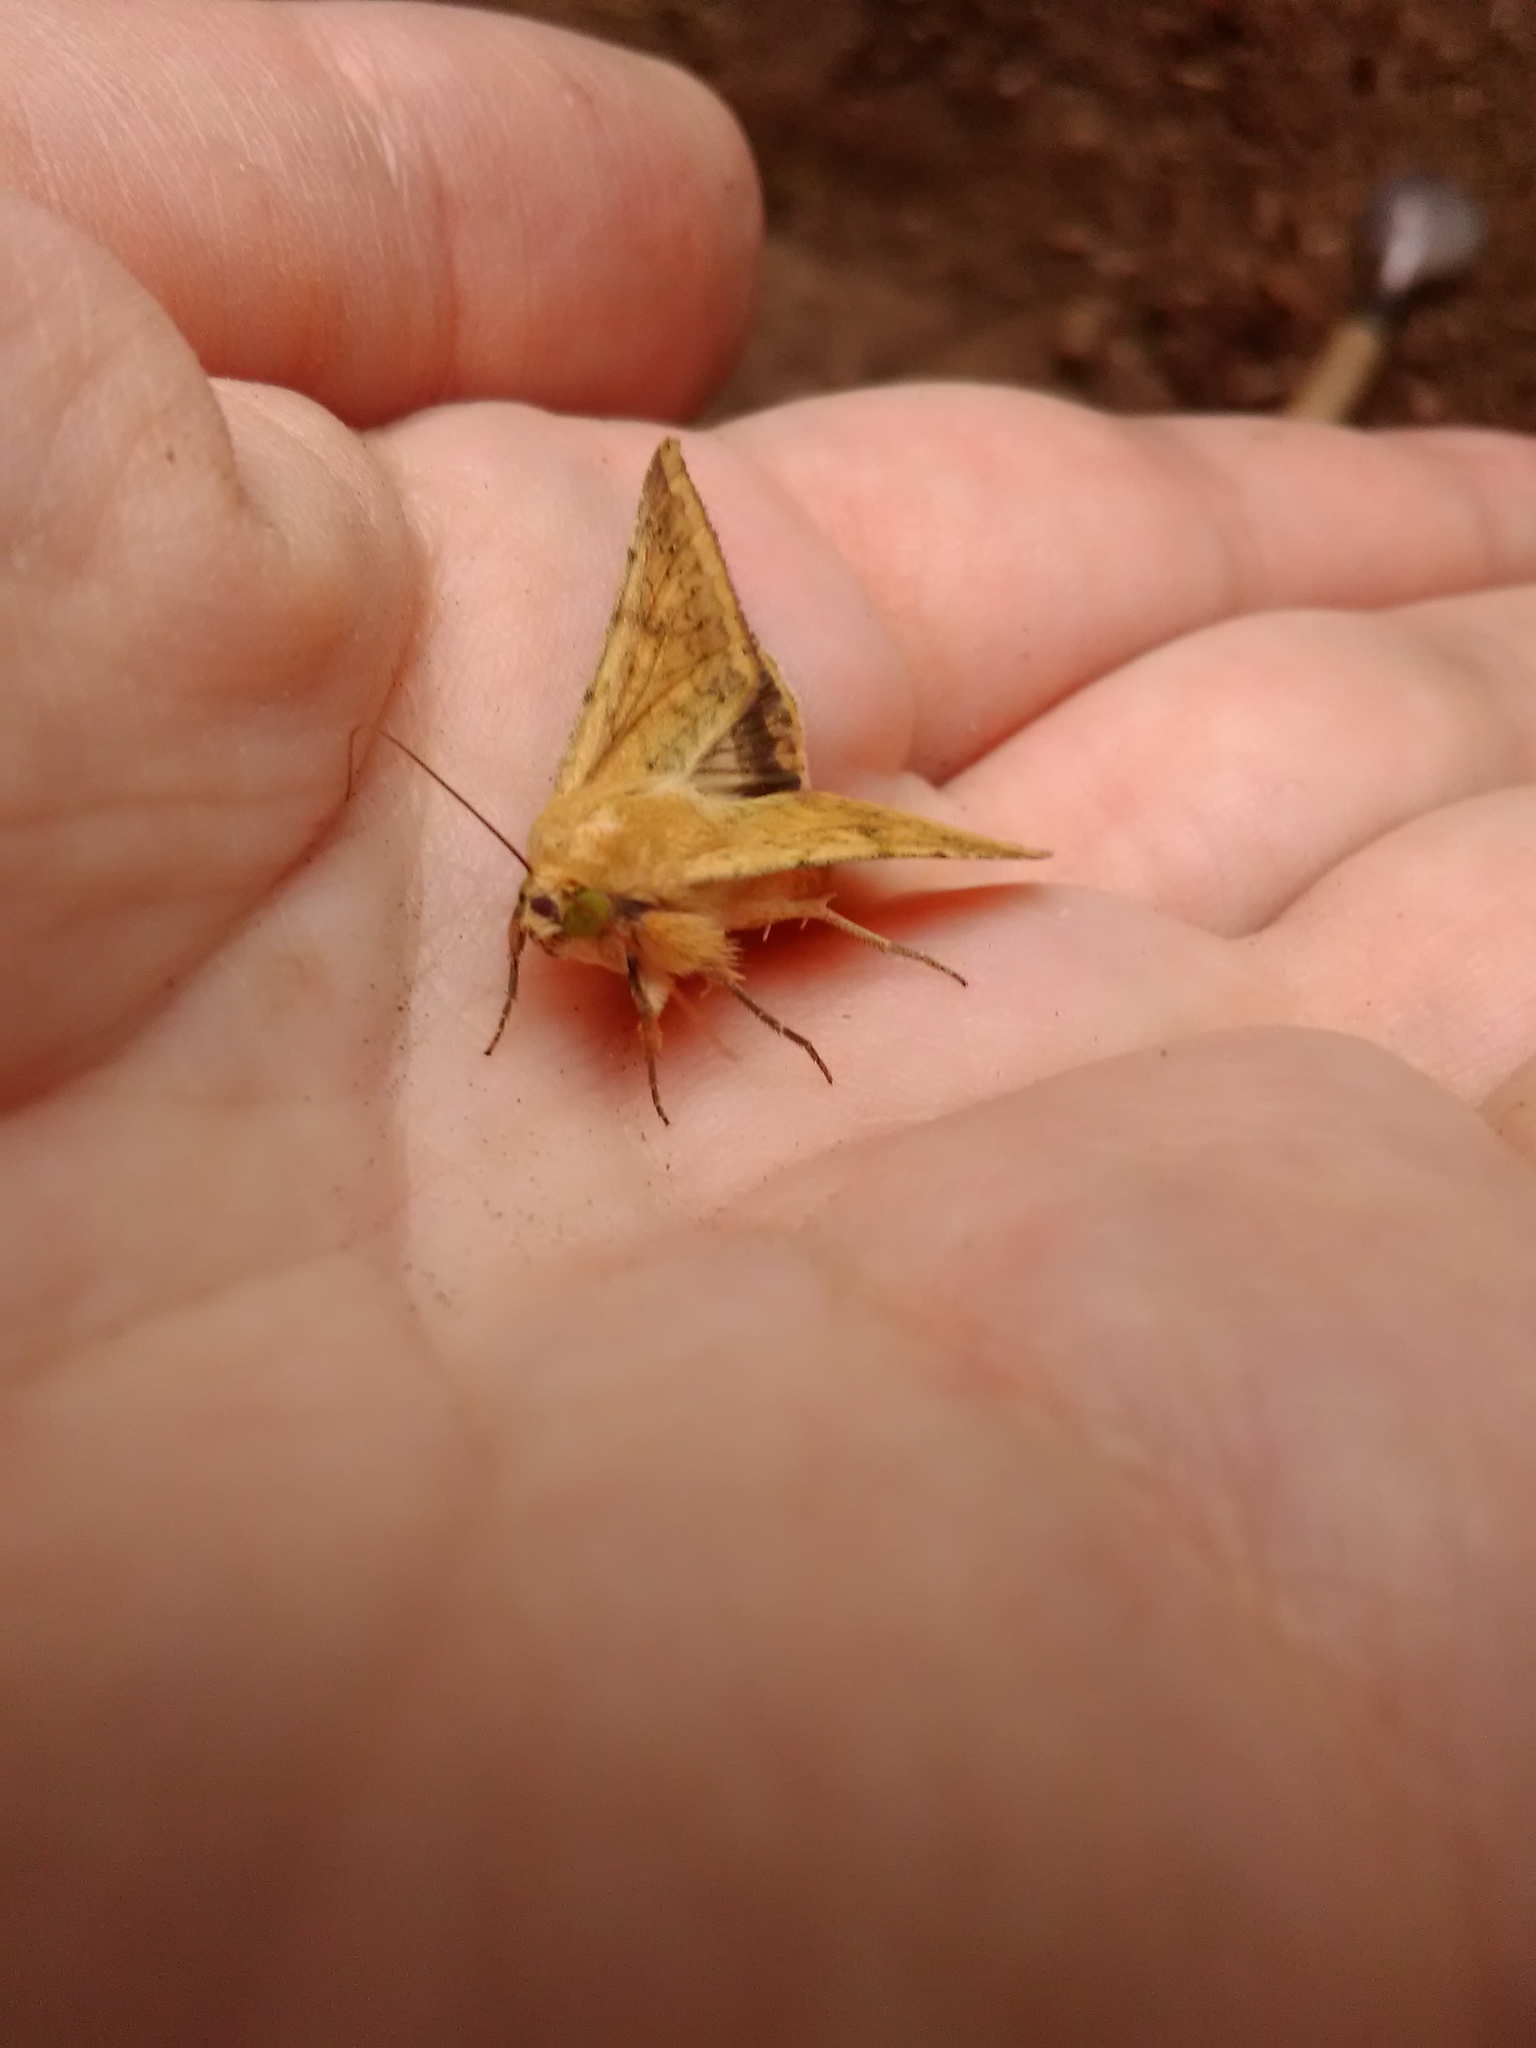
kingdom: Animalia
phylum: Arthropoda
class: Insecta
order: Lepidoptera
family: Noctuidae
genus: Helicoverpa
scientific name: Helicoverpa zea
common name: Bollworm
